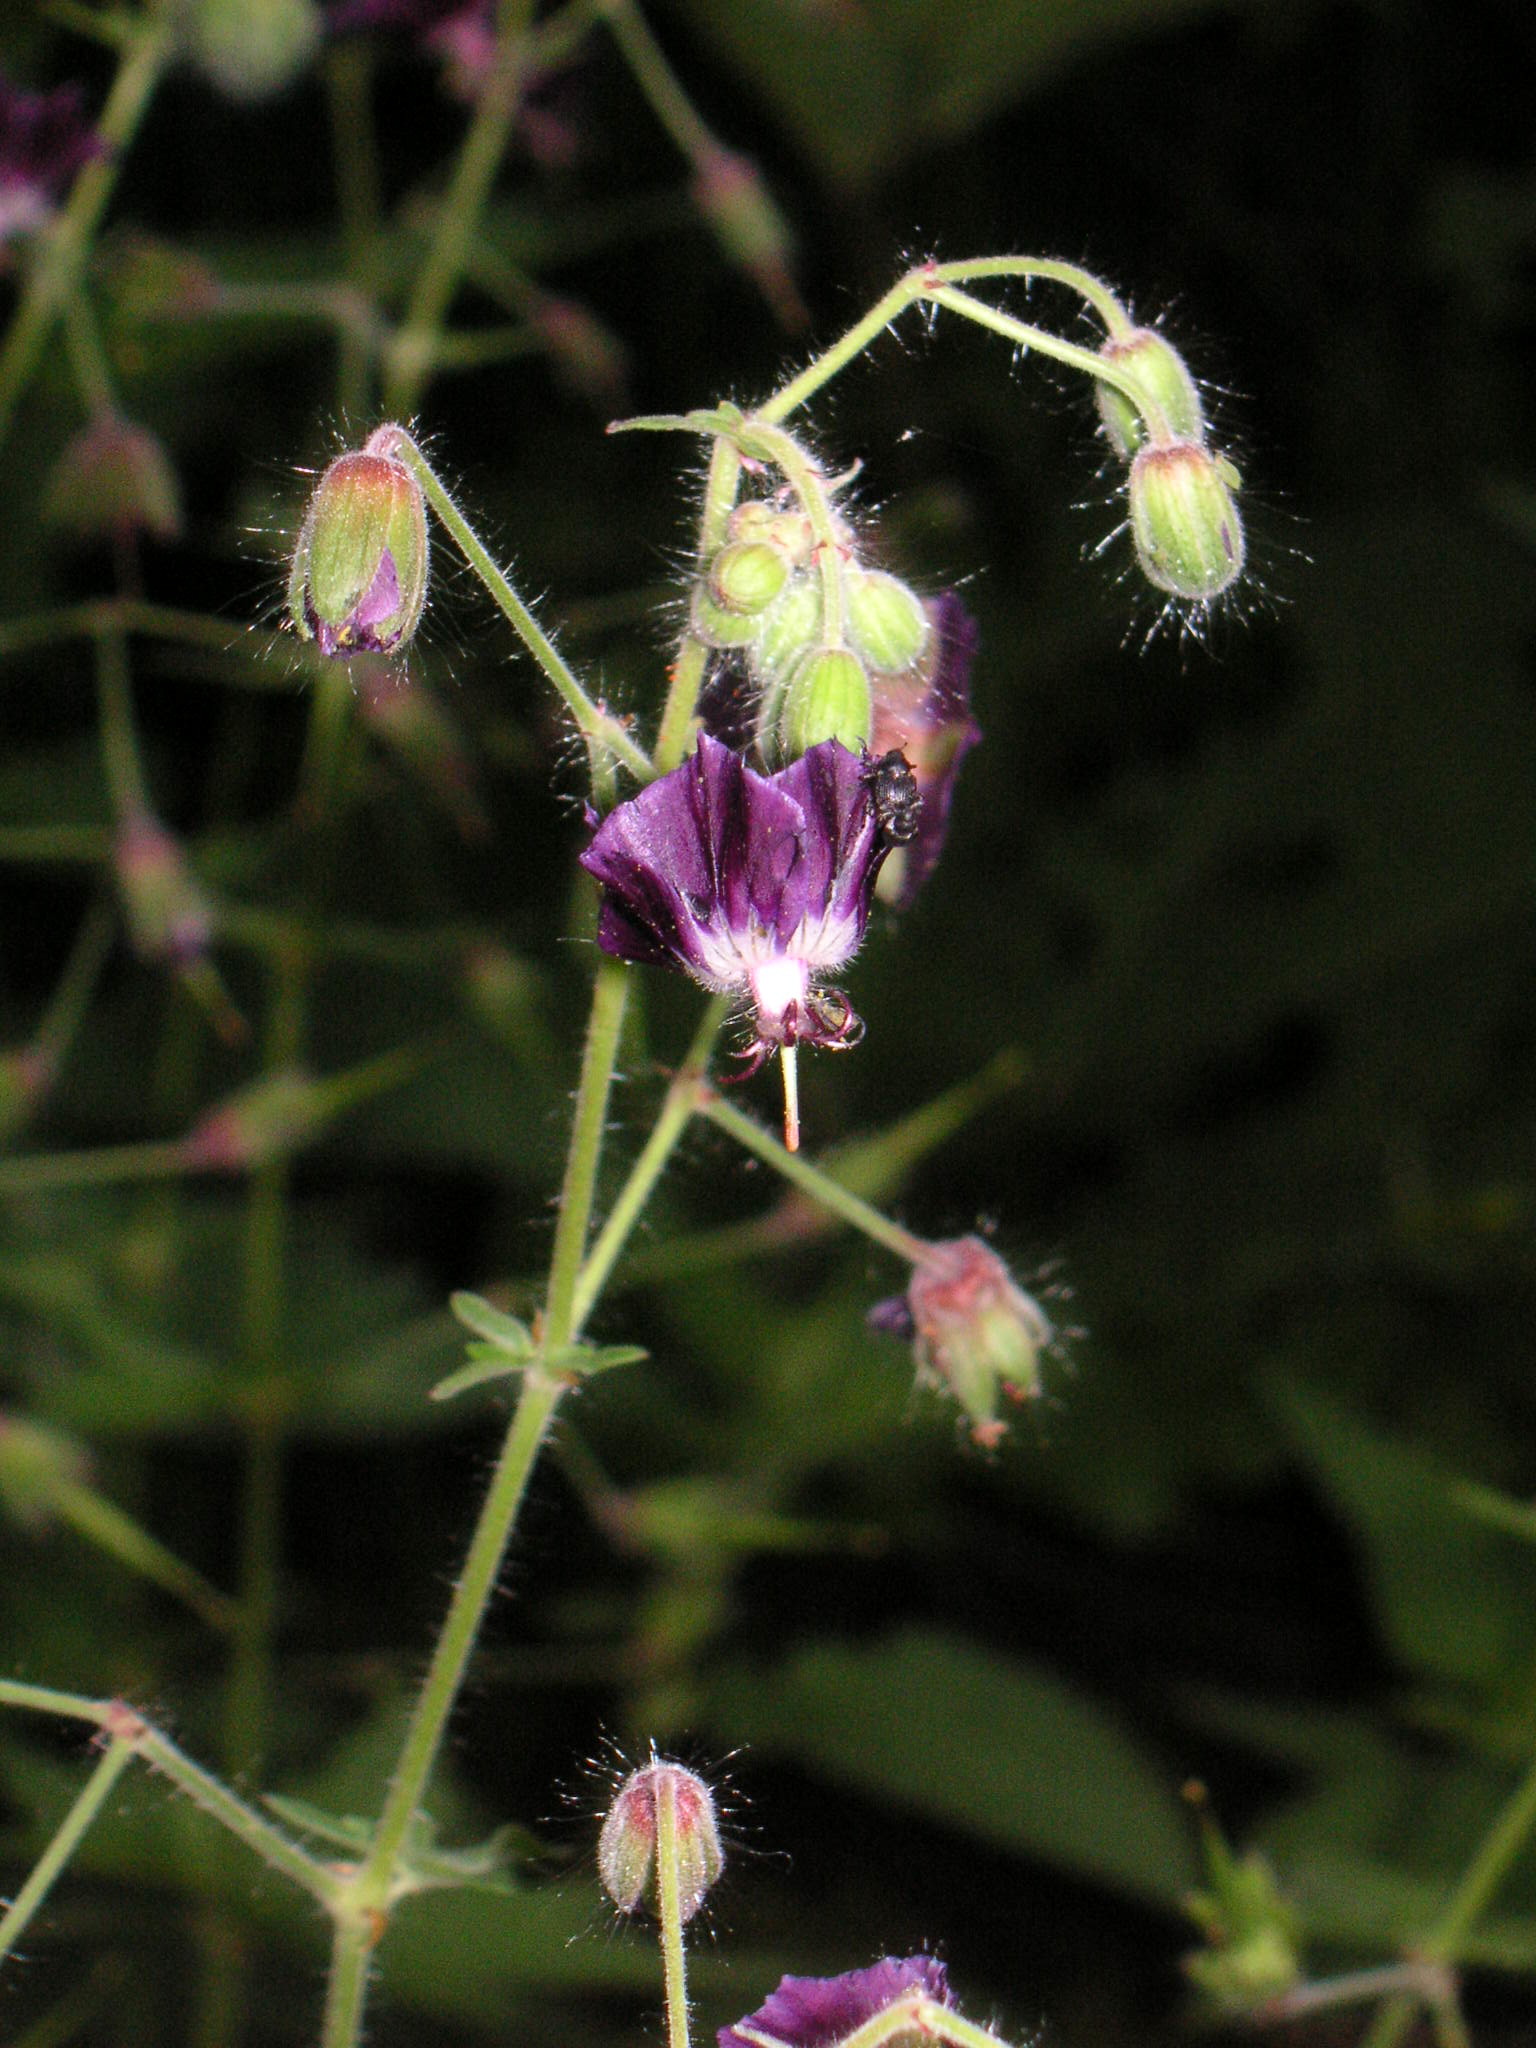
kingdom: Plantae
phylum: Tracheophyta
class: Magnoliopsida
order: Geraniales
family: Geraniaceae
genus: Geranium
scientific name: Geranium phaeum
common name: Dusky crane's-bill
